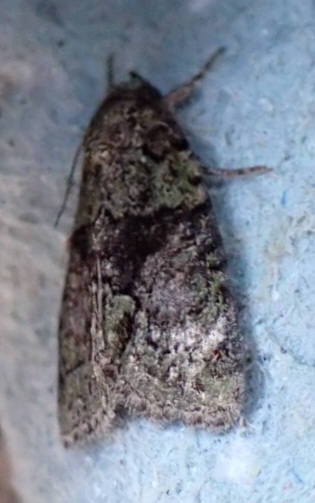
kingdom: Animalia
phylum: Arthropoda
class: Insecta
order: Lepidoptera
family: Noctuidae
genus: Cryphia
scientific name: Cryphia algae
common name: Tree-lichen beauty
